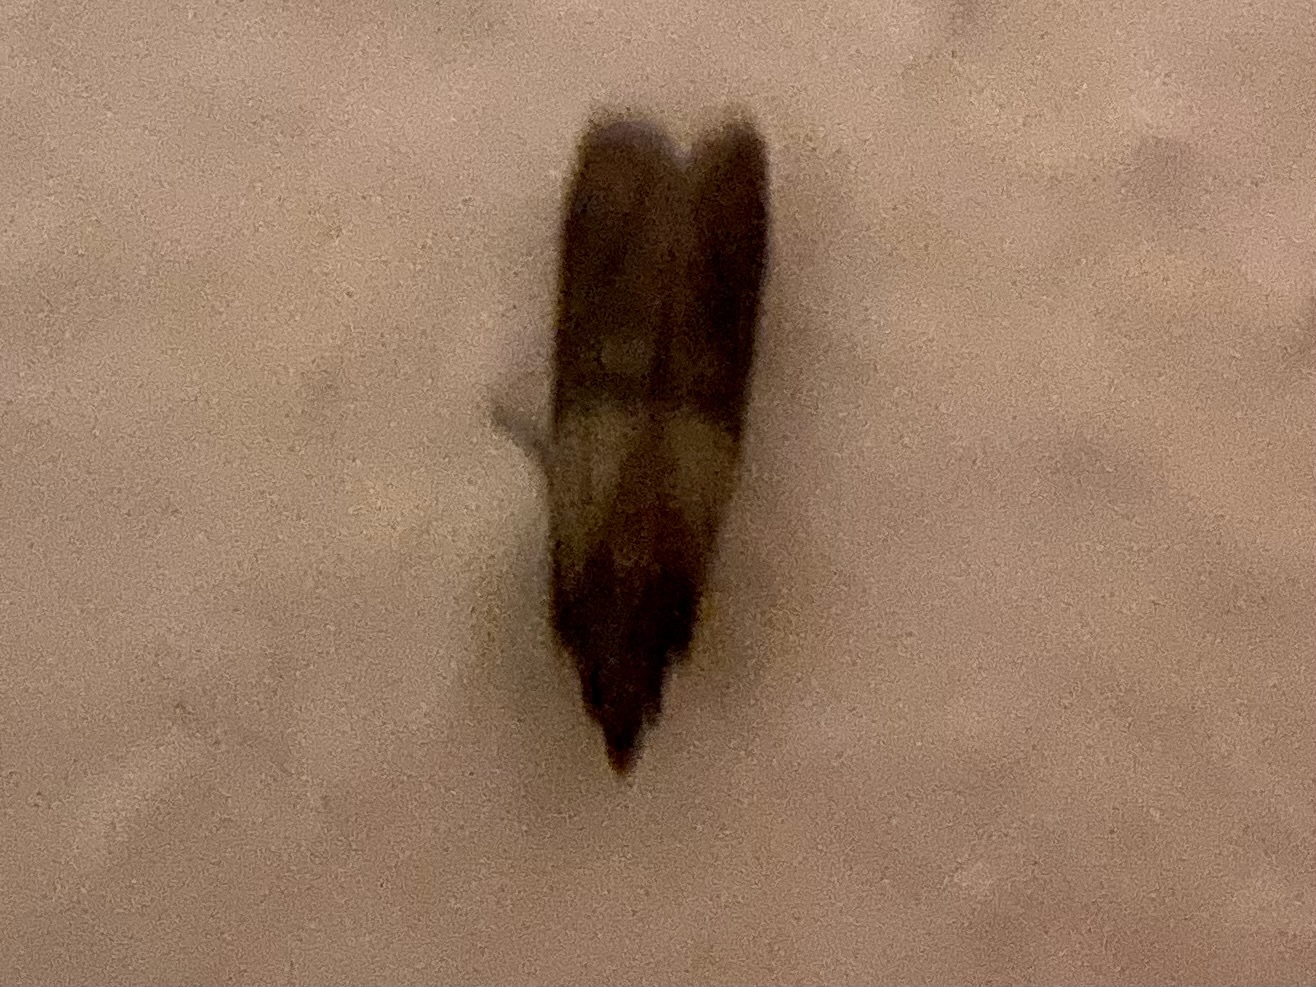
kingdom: Animalia
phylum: Arthropoda
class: Insecta
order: Lepidoptera
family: Pyralidae
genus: Plodia
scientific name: Plodia interpunctella
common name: Indian meal moth
